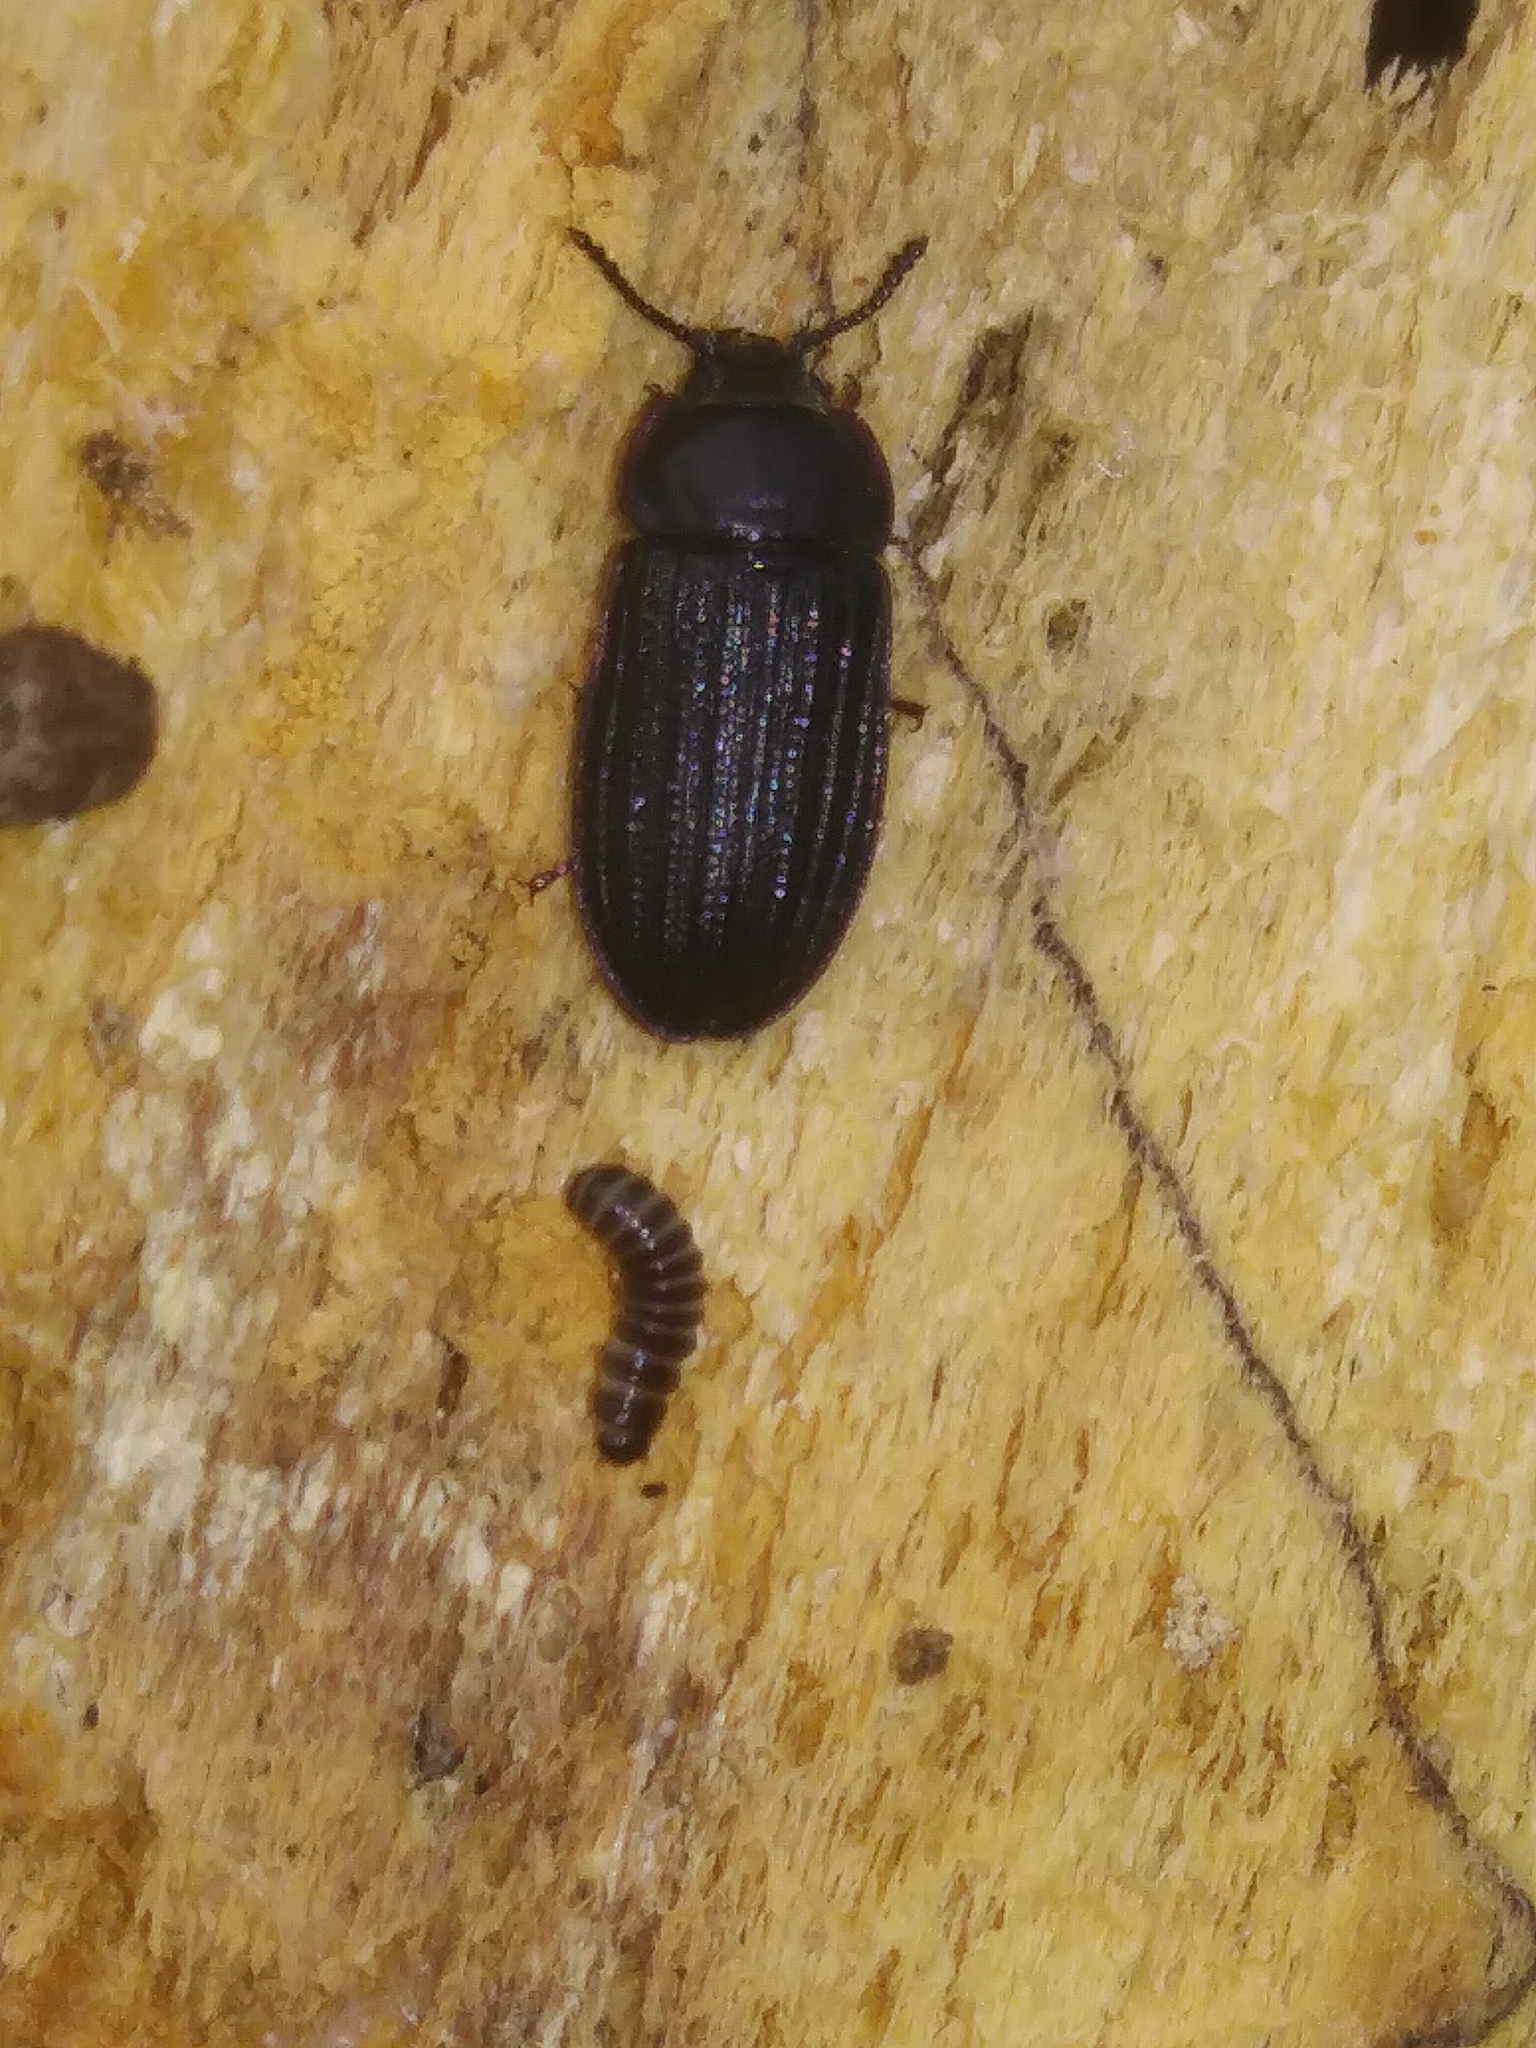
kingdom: Animalia
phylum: Arthropoda
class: Insecta
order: Coleoptera
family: Trogossitidae
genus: Grynocharis
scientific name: Grynocharis quadrilineata
